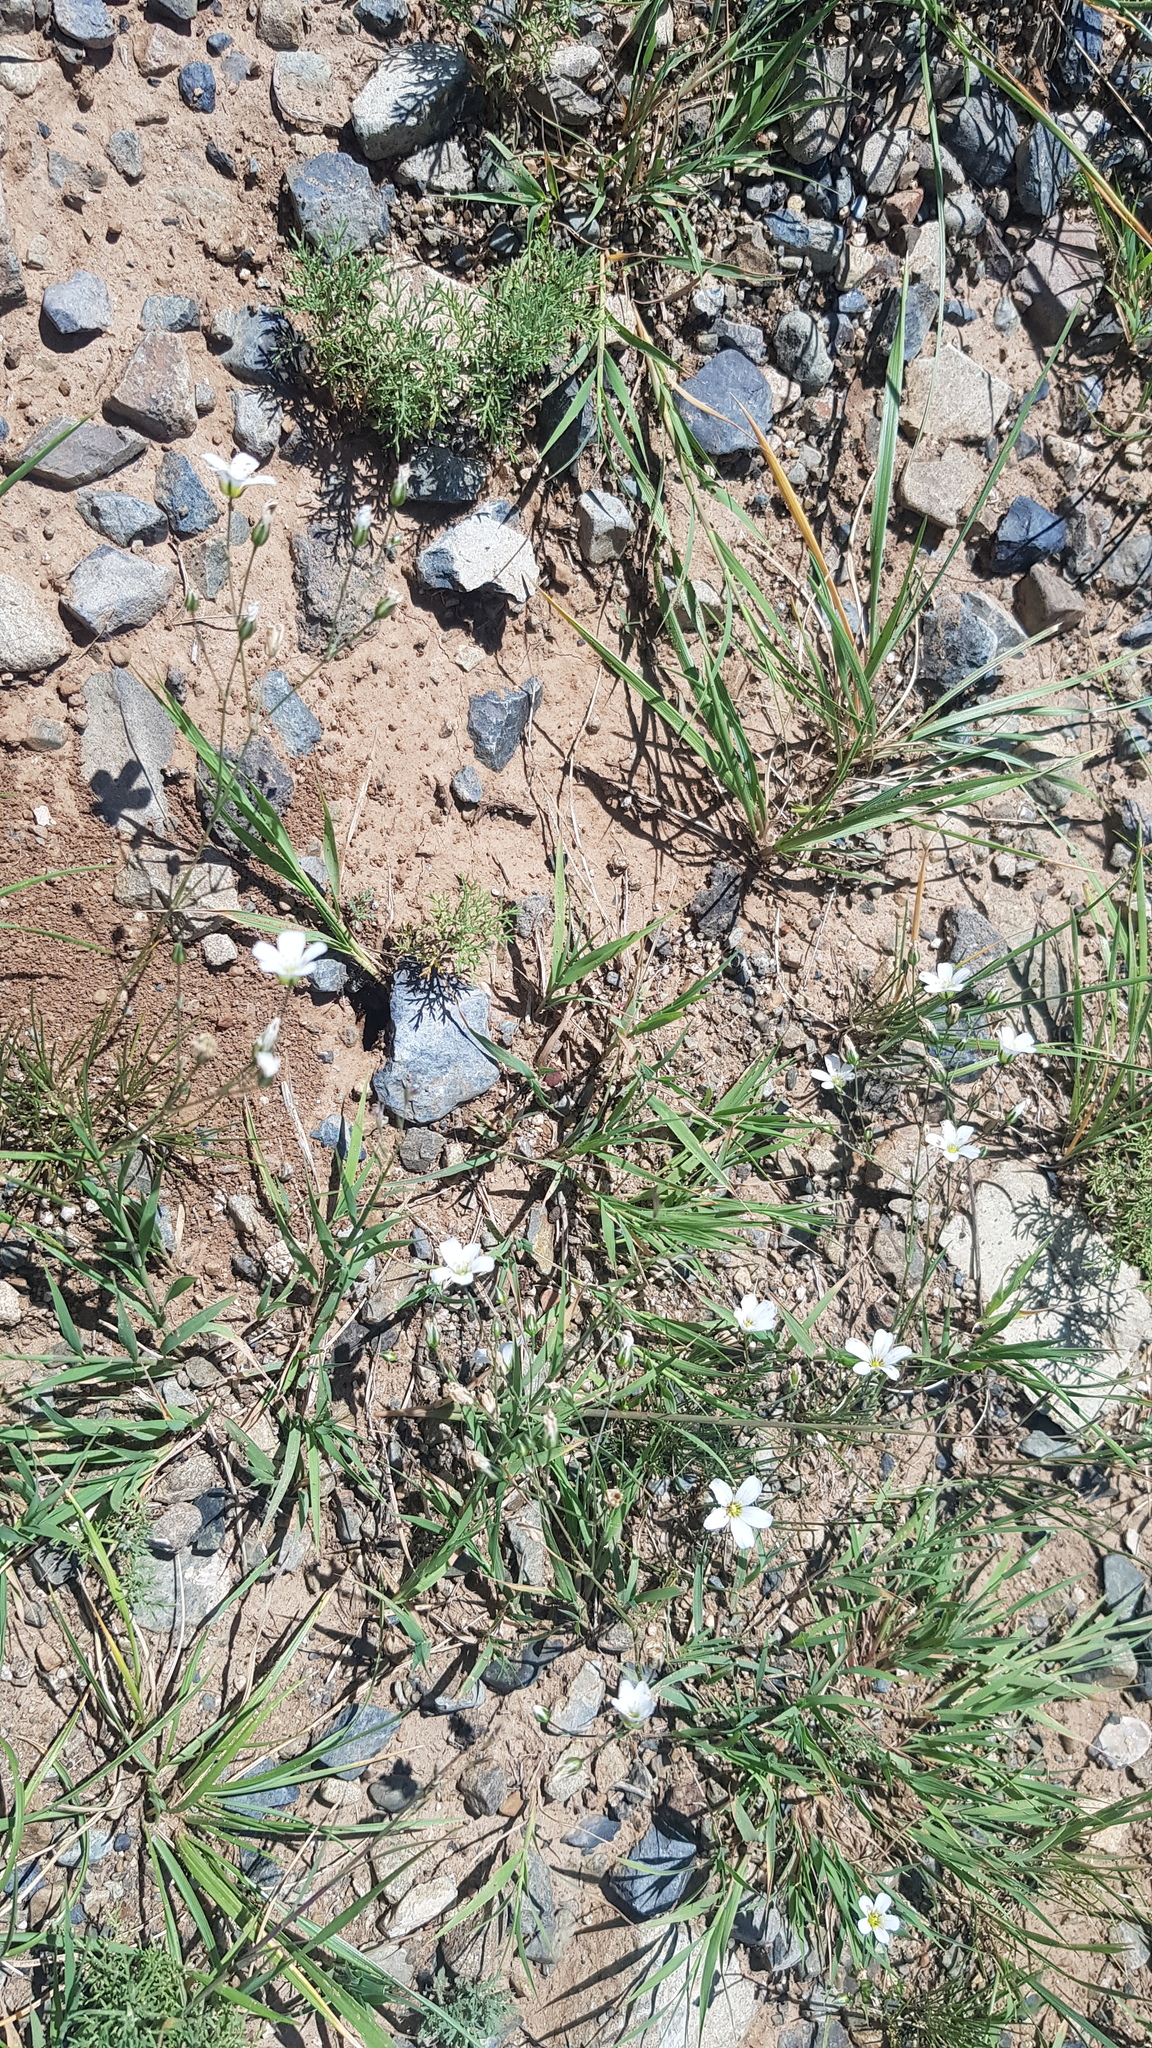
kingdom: Plantae
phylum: Tracheophyta
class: Liliopsida
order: Poales
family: Poaceae
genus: Cleistogenes
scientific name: Cleistogenes squarrosa
